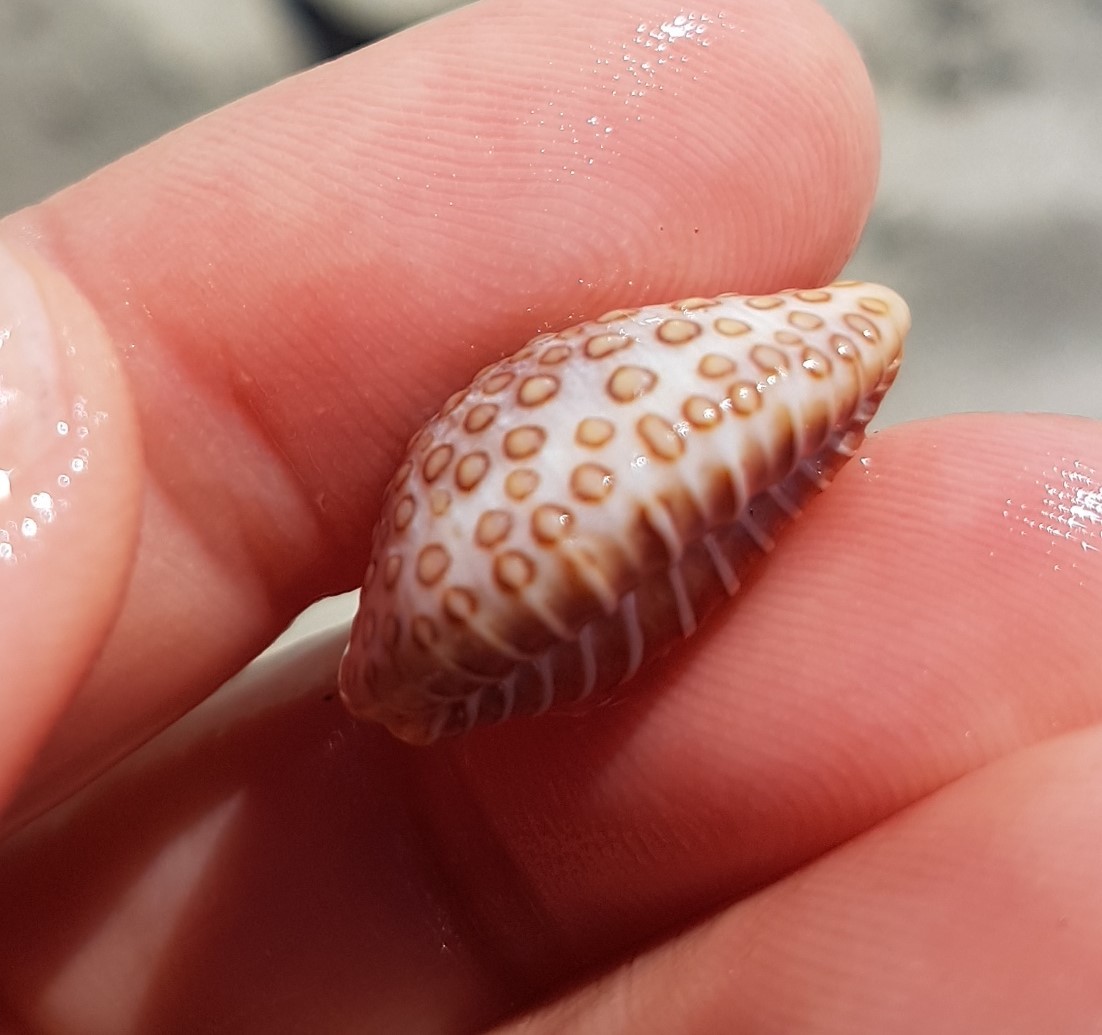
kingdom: Animalia
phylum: Mollusca
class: Gastropoda
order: Littorinimorpha
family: Pediculariidae
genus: Jenneria
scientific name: Jenneria pustulata
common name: Pustuled cowrie
